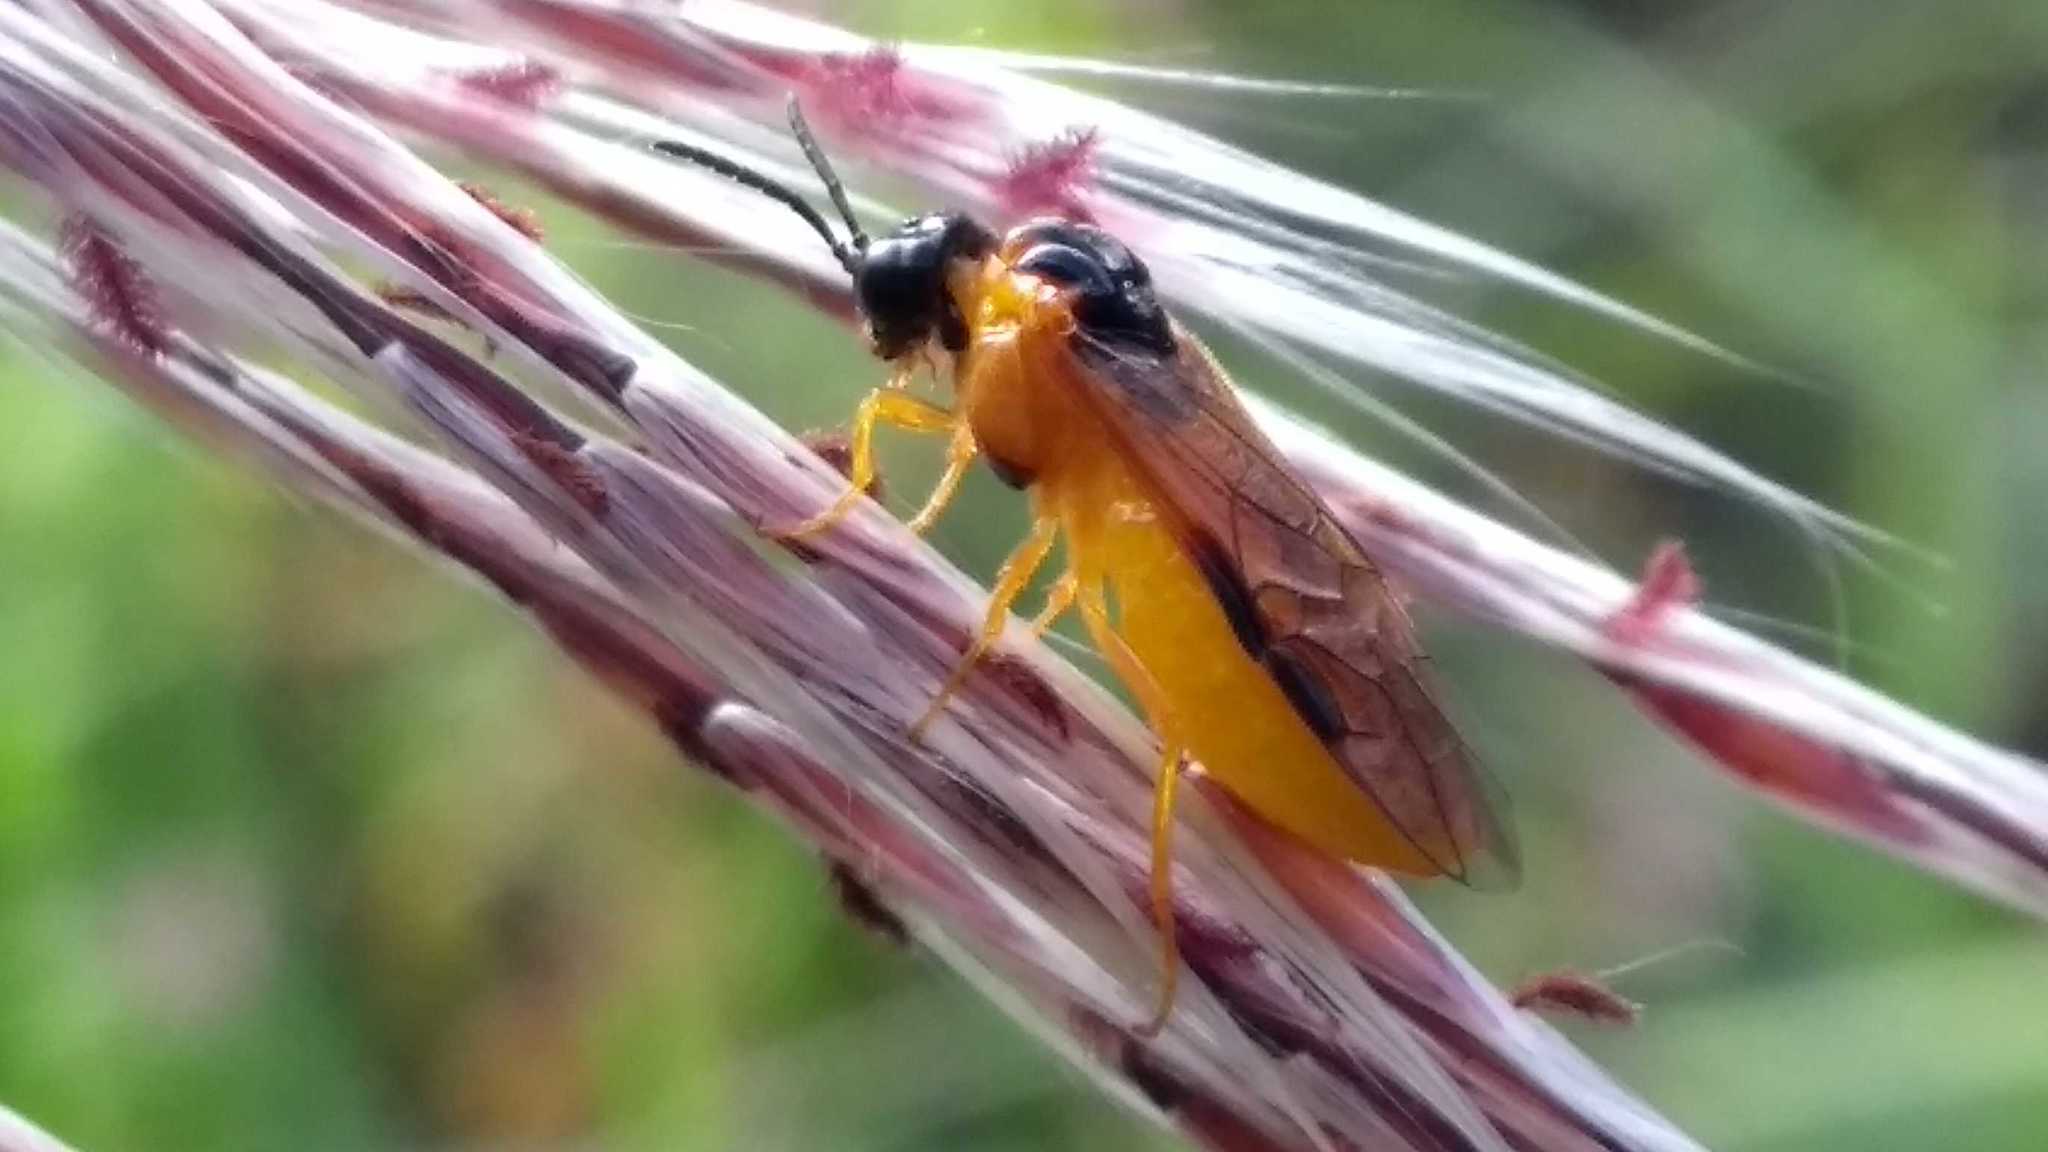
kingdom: Animalia
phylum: Arthropoda
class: Insecta
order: Hymenoptera
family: Tenthredinidae
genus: Selandria
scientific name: Selandria serva
